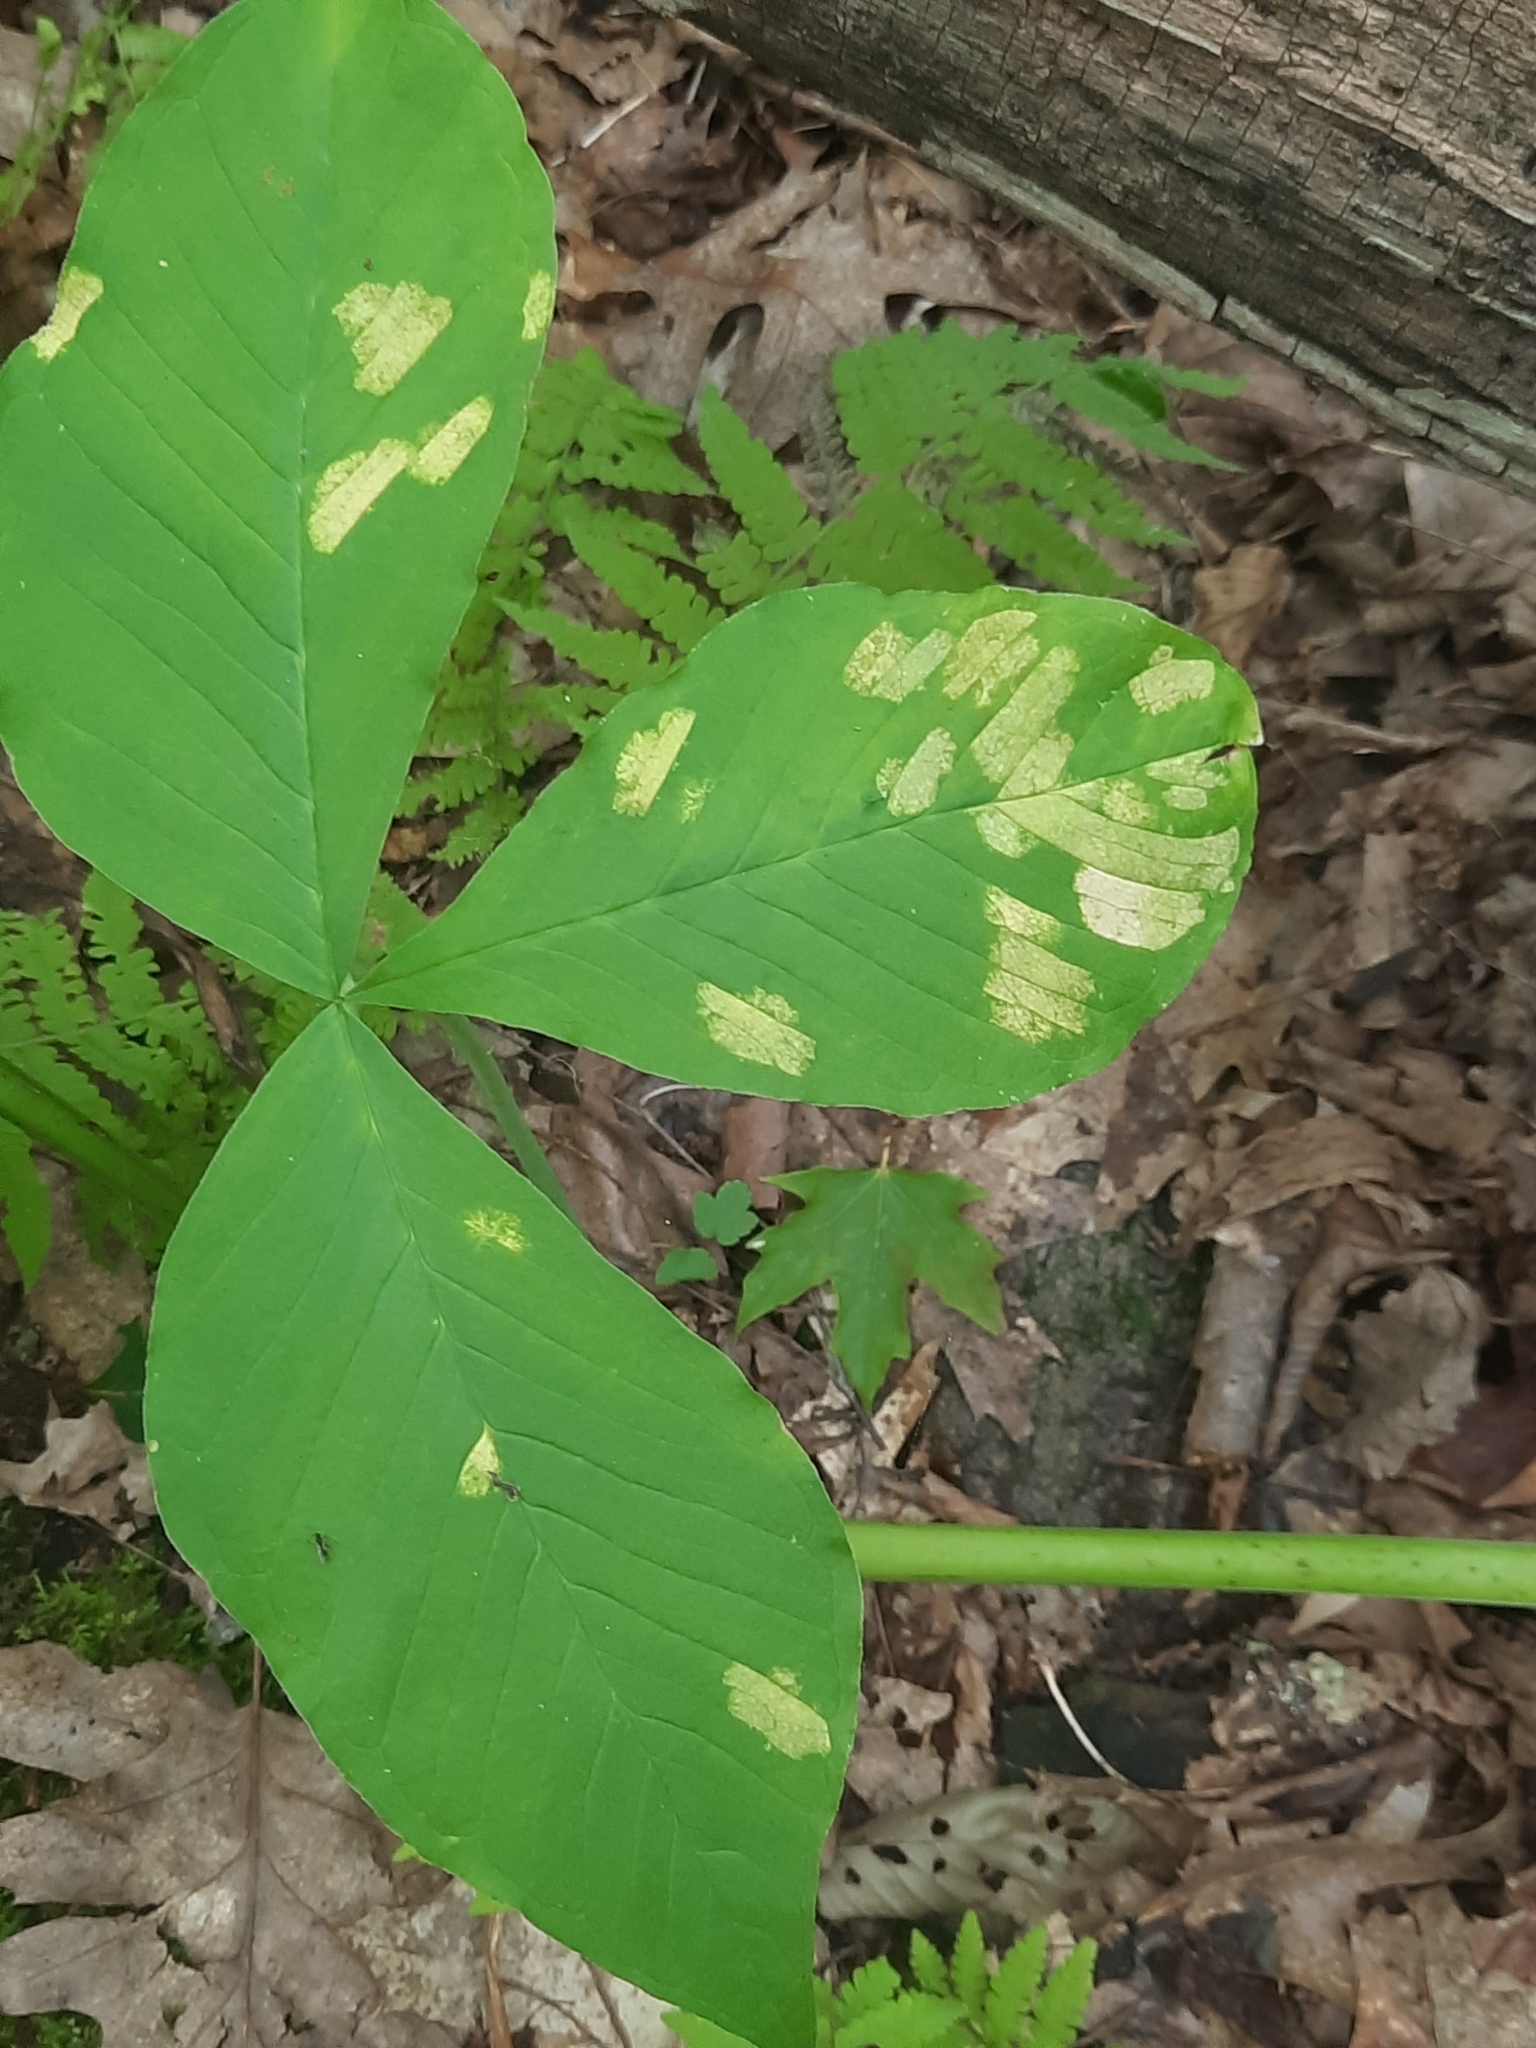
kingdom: Plantae
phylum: Tracheophyta
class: Liliopsida
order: Alismatales
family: Araceae
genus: Arisaema
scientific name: Arisaema triphyllum
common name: Jack-in-the-pulpit
